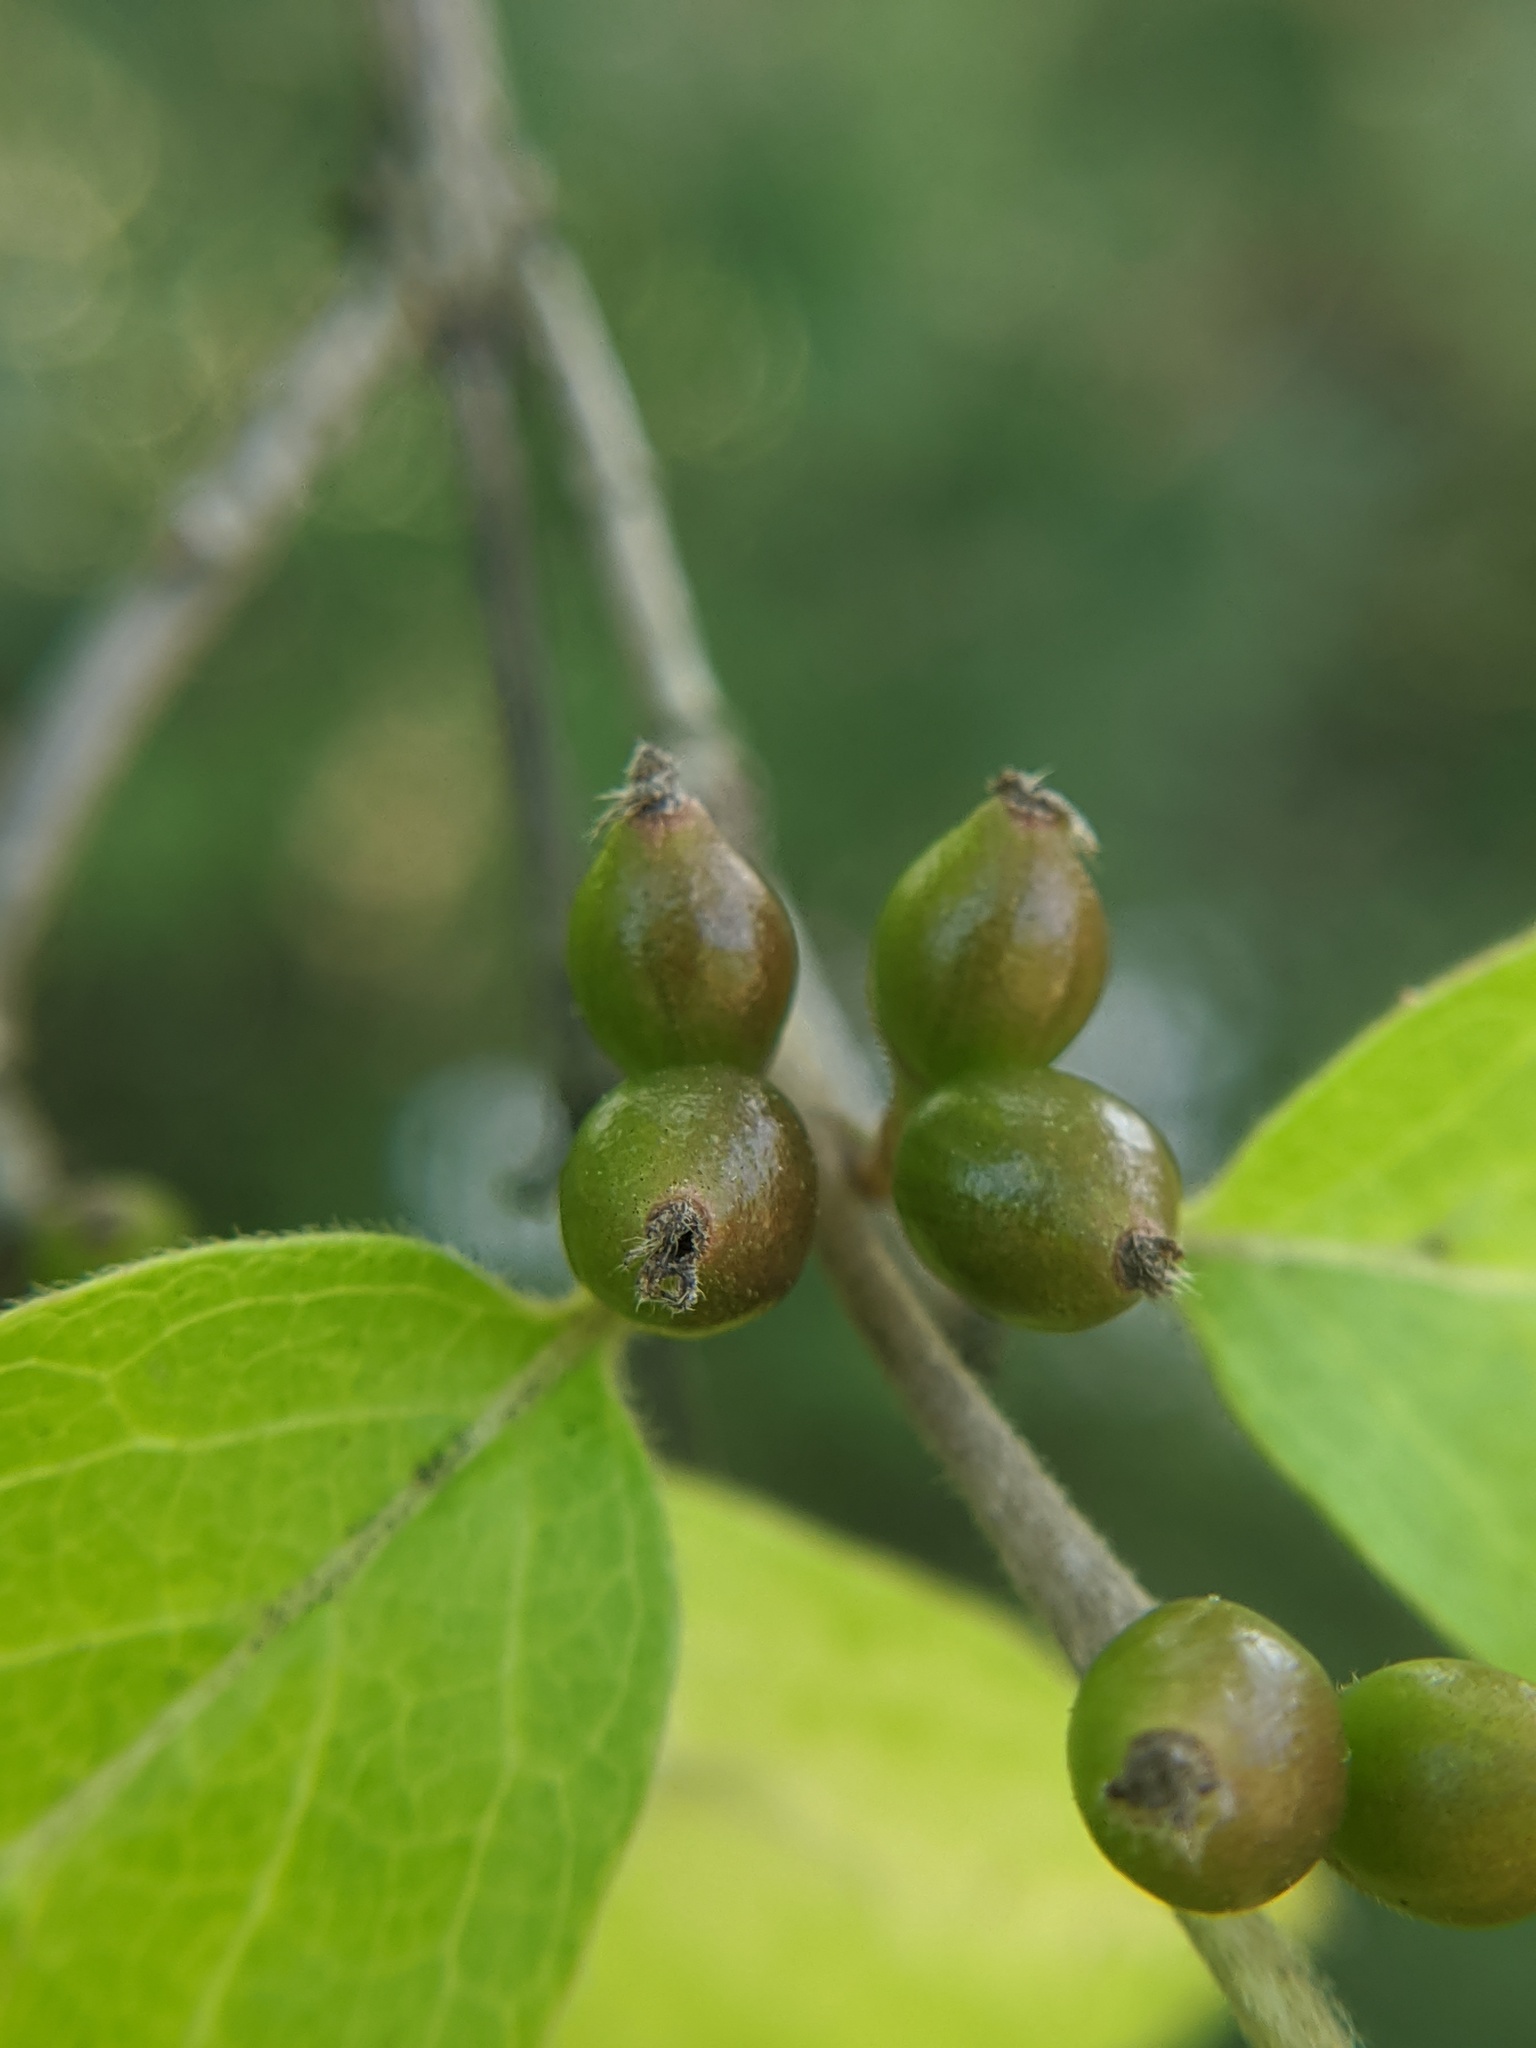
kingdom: Plantae
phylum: Tracheophyta
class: Magnoliopsida
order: Dipsacales
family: Caprifoliaceae
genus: Lonicera
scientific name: Lonicera maackii
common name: Amur honeysuckle
